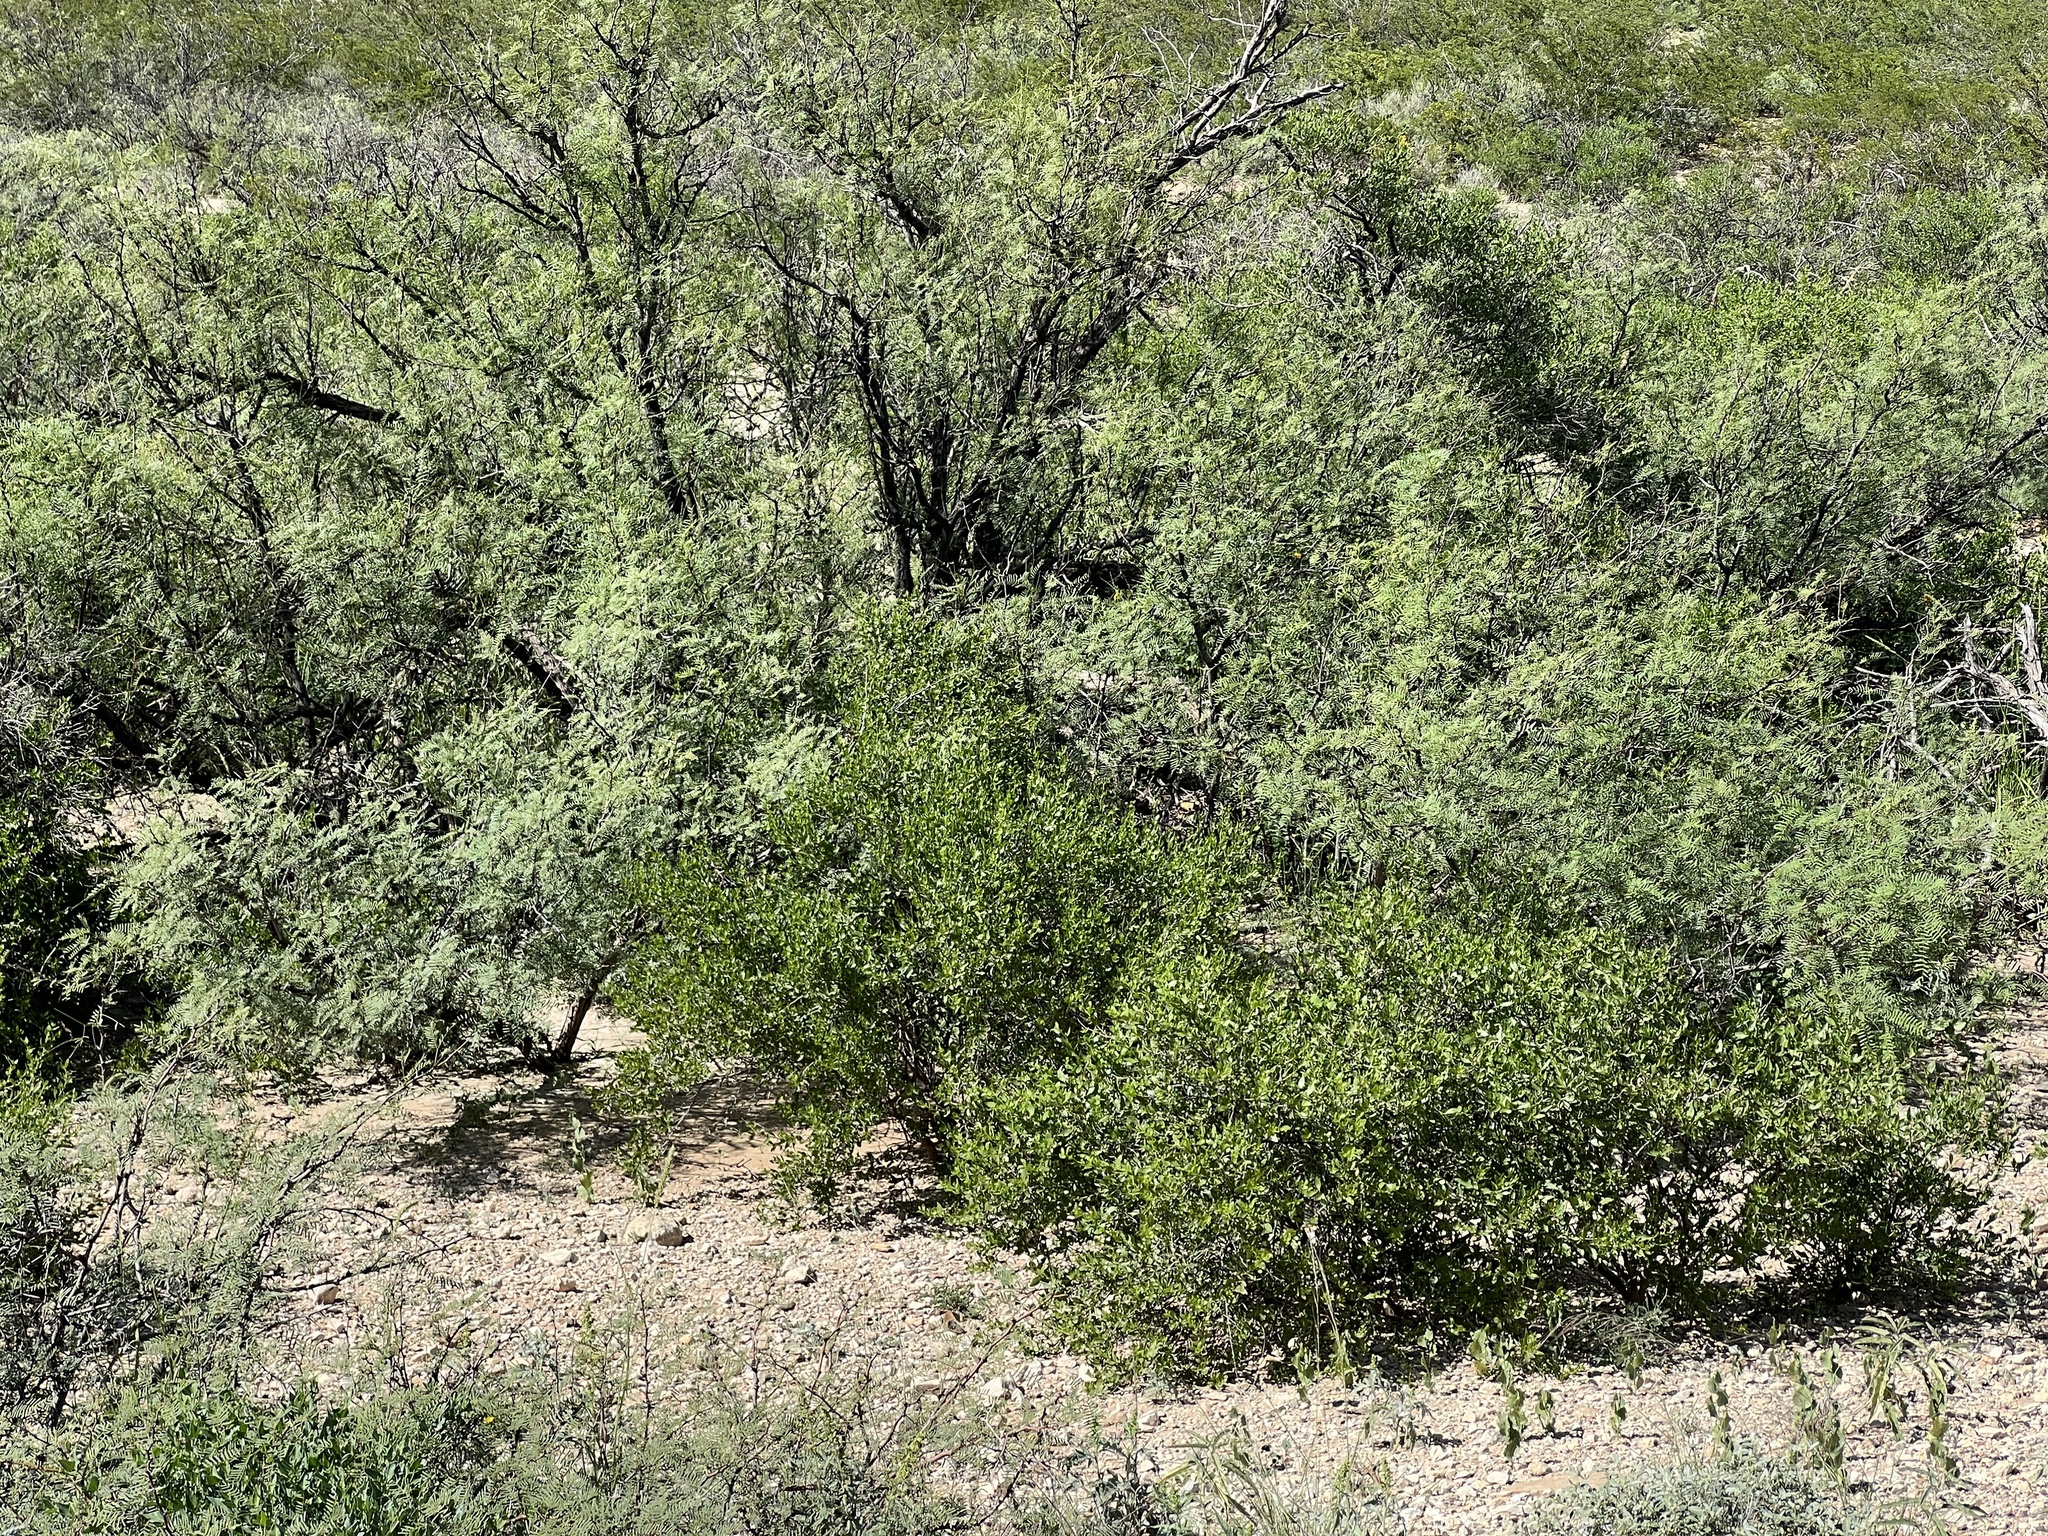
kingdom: Plantae
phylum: Tracheophyta
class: Magnoliopsida
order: Zygophyllales
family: Zygophyllaceae
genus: Larrea
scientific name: Larrea tridentata
